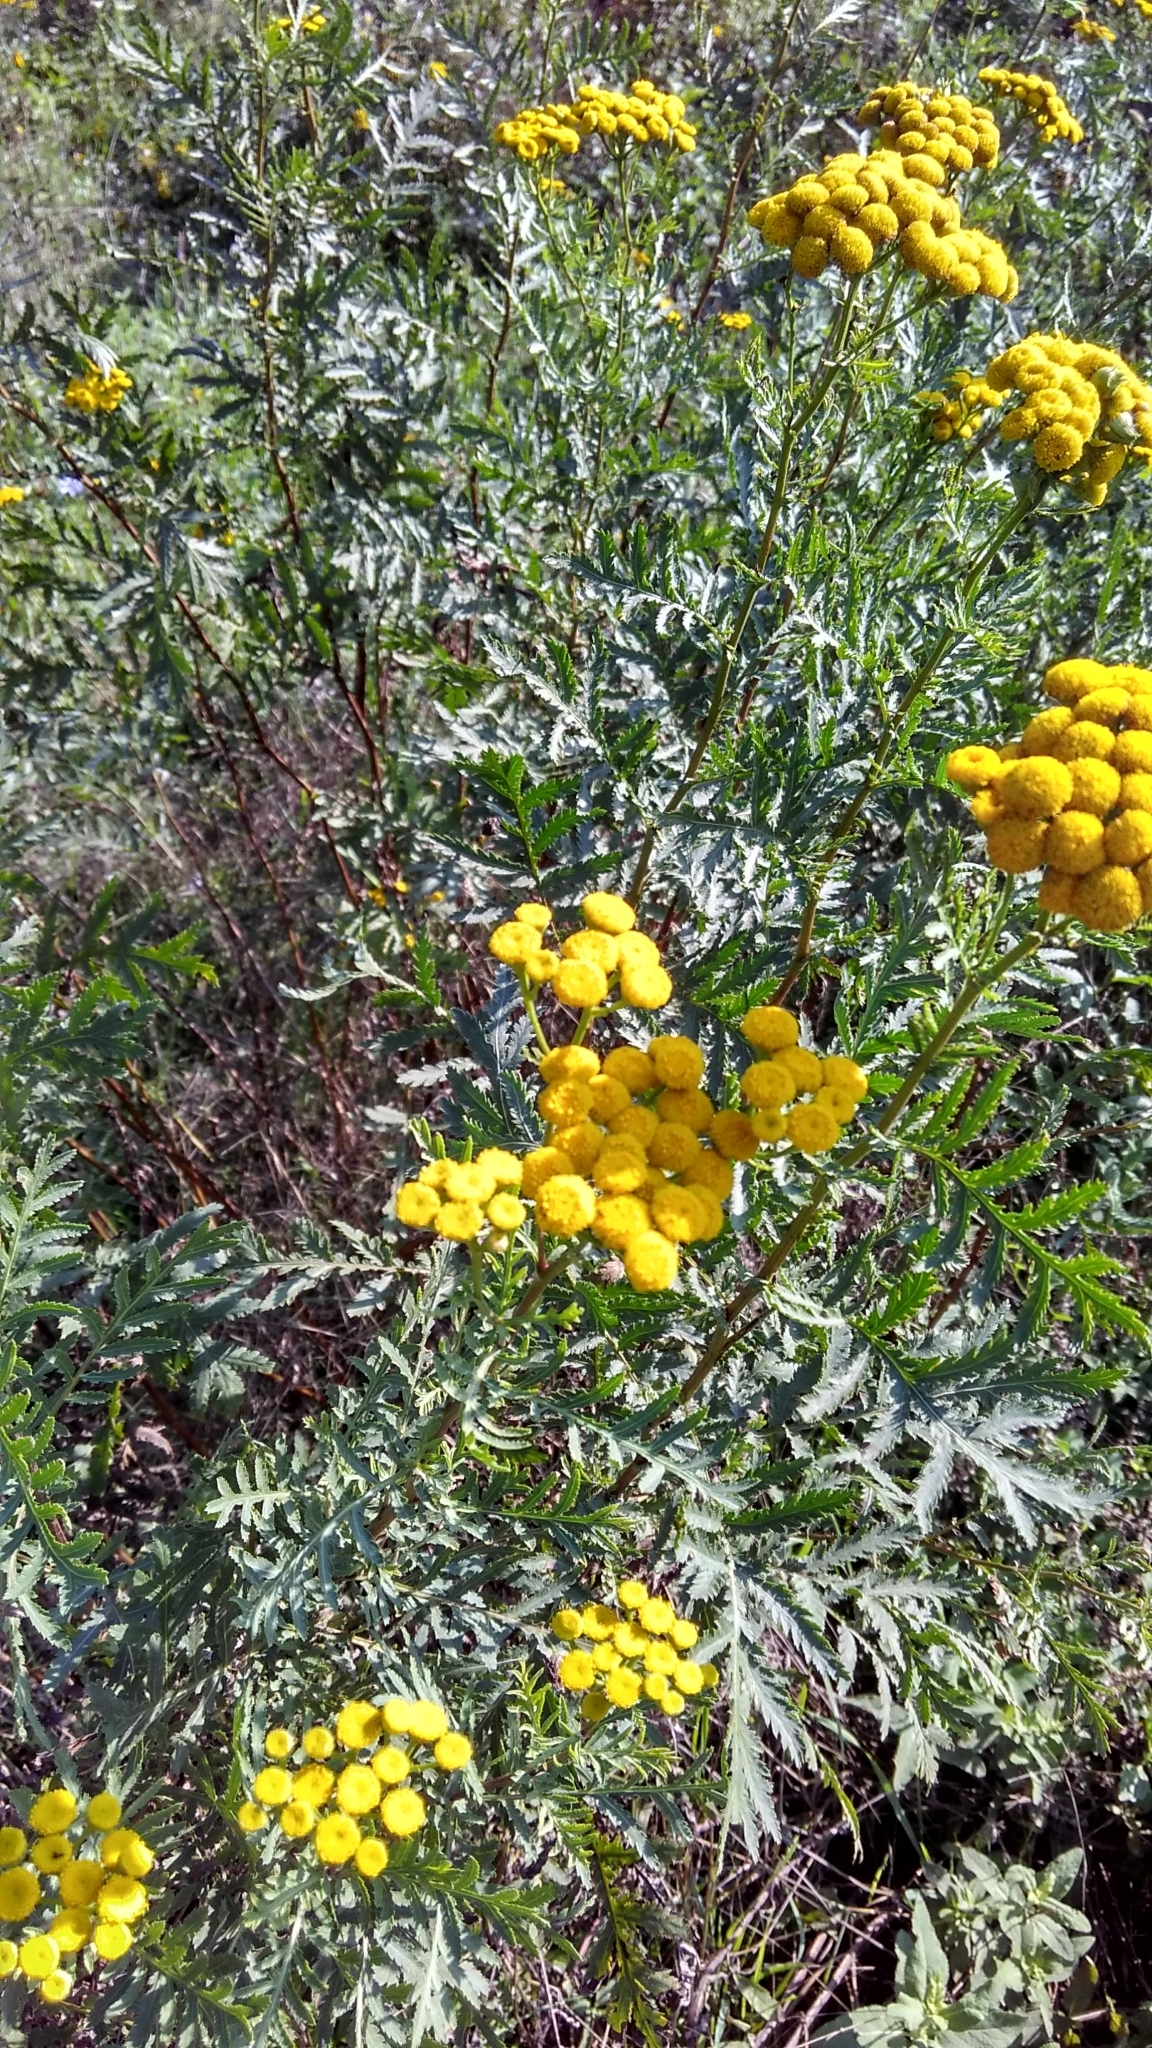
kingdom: Plantae
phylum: Tracheophyta
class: Magnoliopsida
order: Asterales
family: Asteraceae
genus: Tanacetum
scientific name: Tanacetum vulgare
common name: Common tansy
